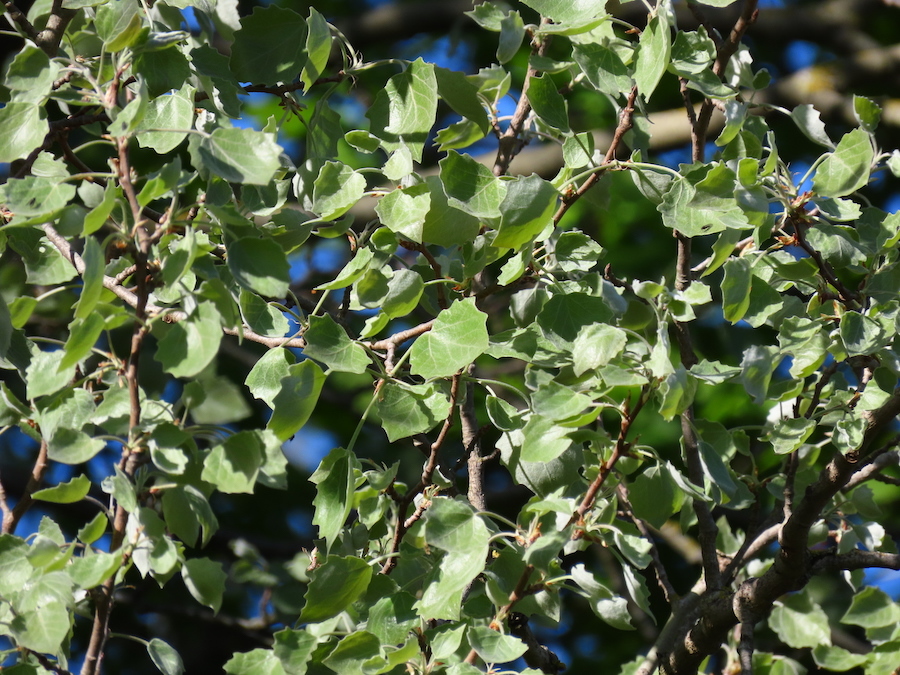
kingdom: Plantae
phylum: Tracheophyta
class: Magnoliopsida
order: Malpighiales
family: Salicaceae
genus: Populus
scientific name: Populus alba
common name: White poplar
